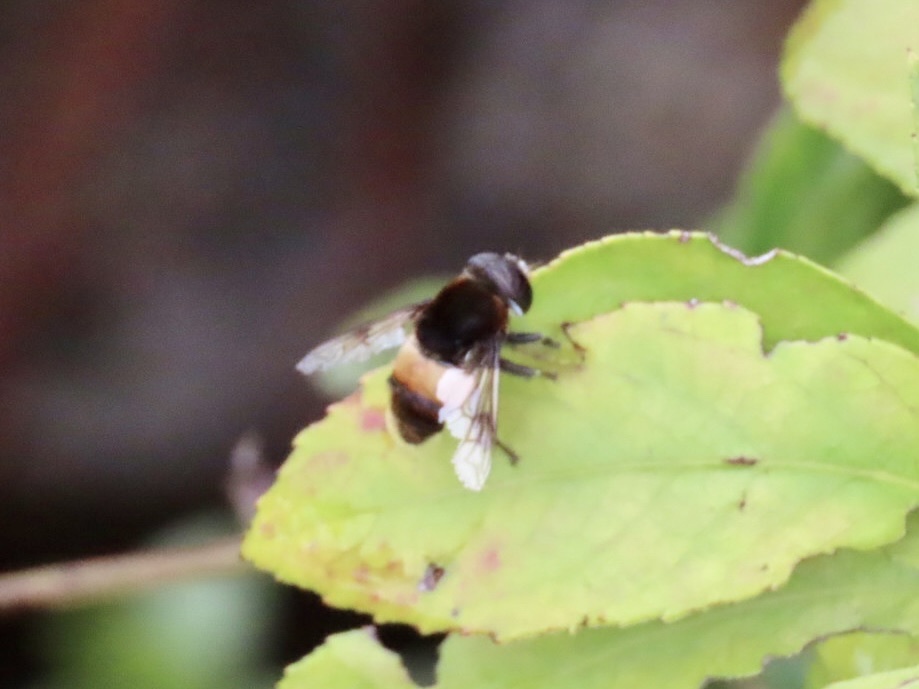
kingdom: Animalia
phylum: Arthropoda
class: Insecta
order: Diptera
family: Syrphidae
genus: Phytomia
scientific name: Phytomia zonata
